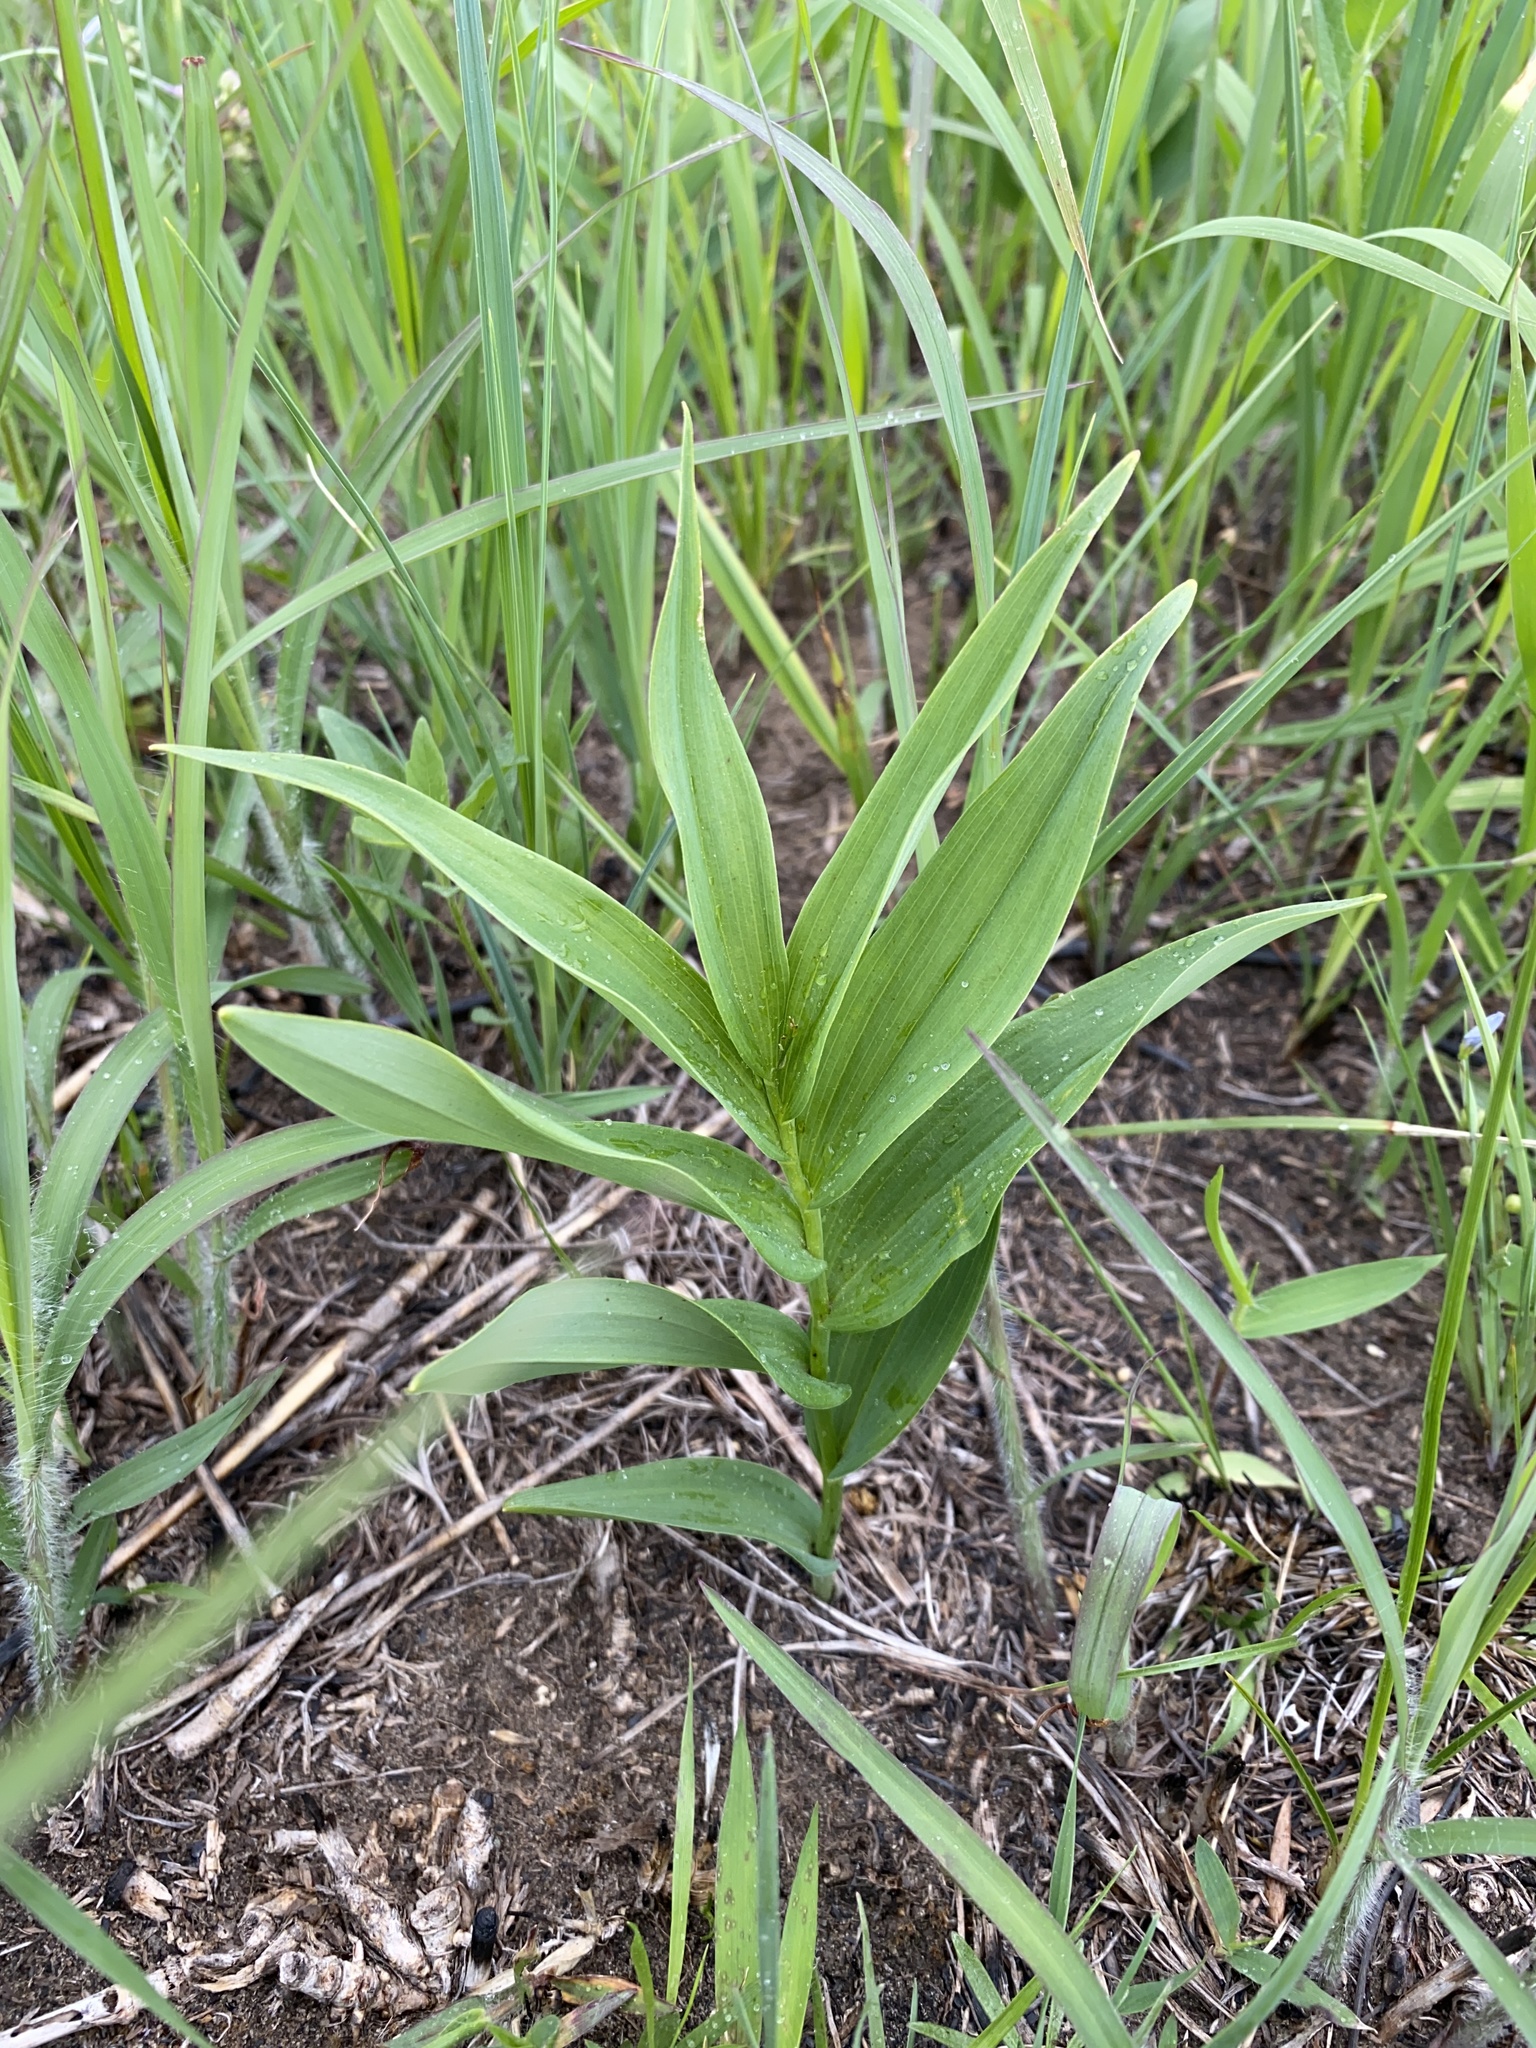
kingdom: Plantae
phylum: Tracheophyta
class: Liliopsida
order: Asparagales
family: Asparagaceae
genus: Maianthemum
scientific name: Maianthemum stellatum
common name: Little false solomon's seal
